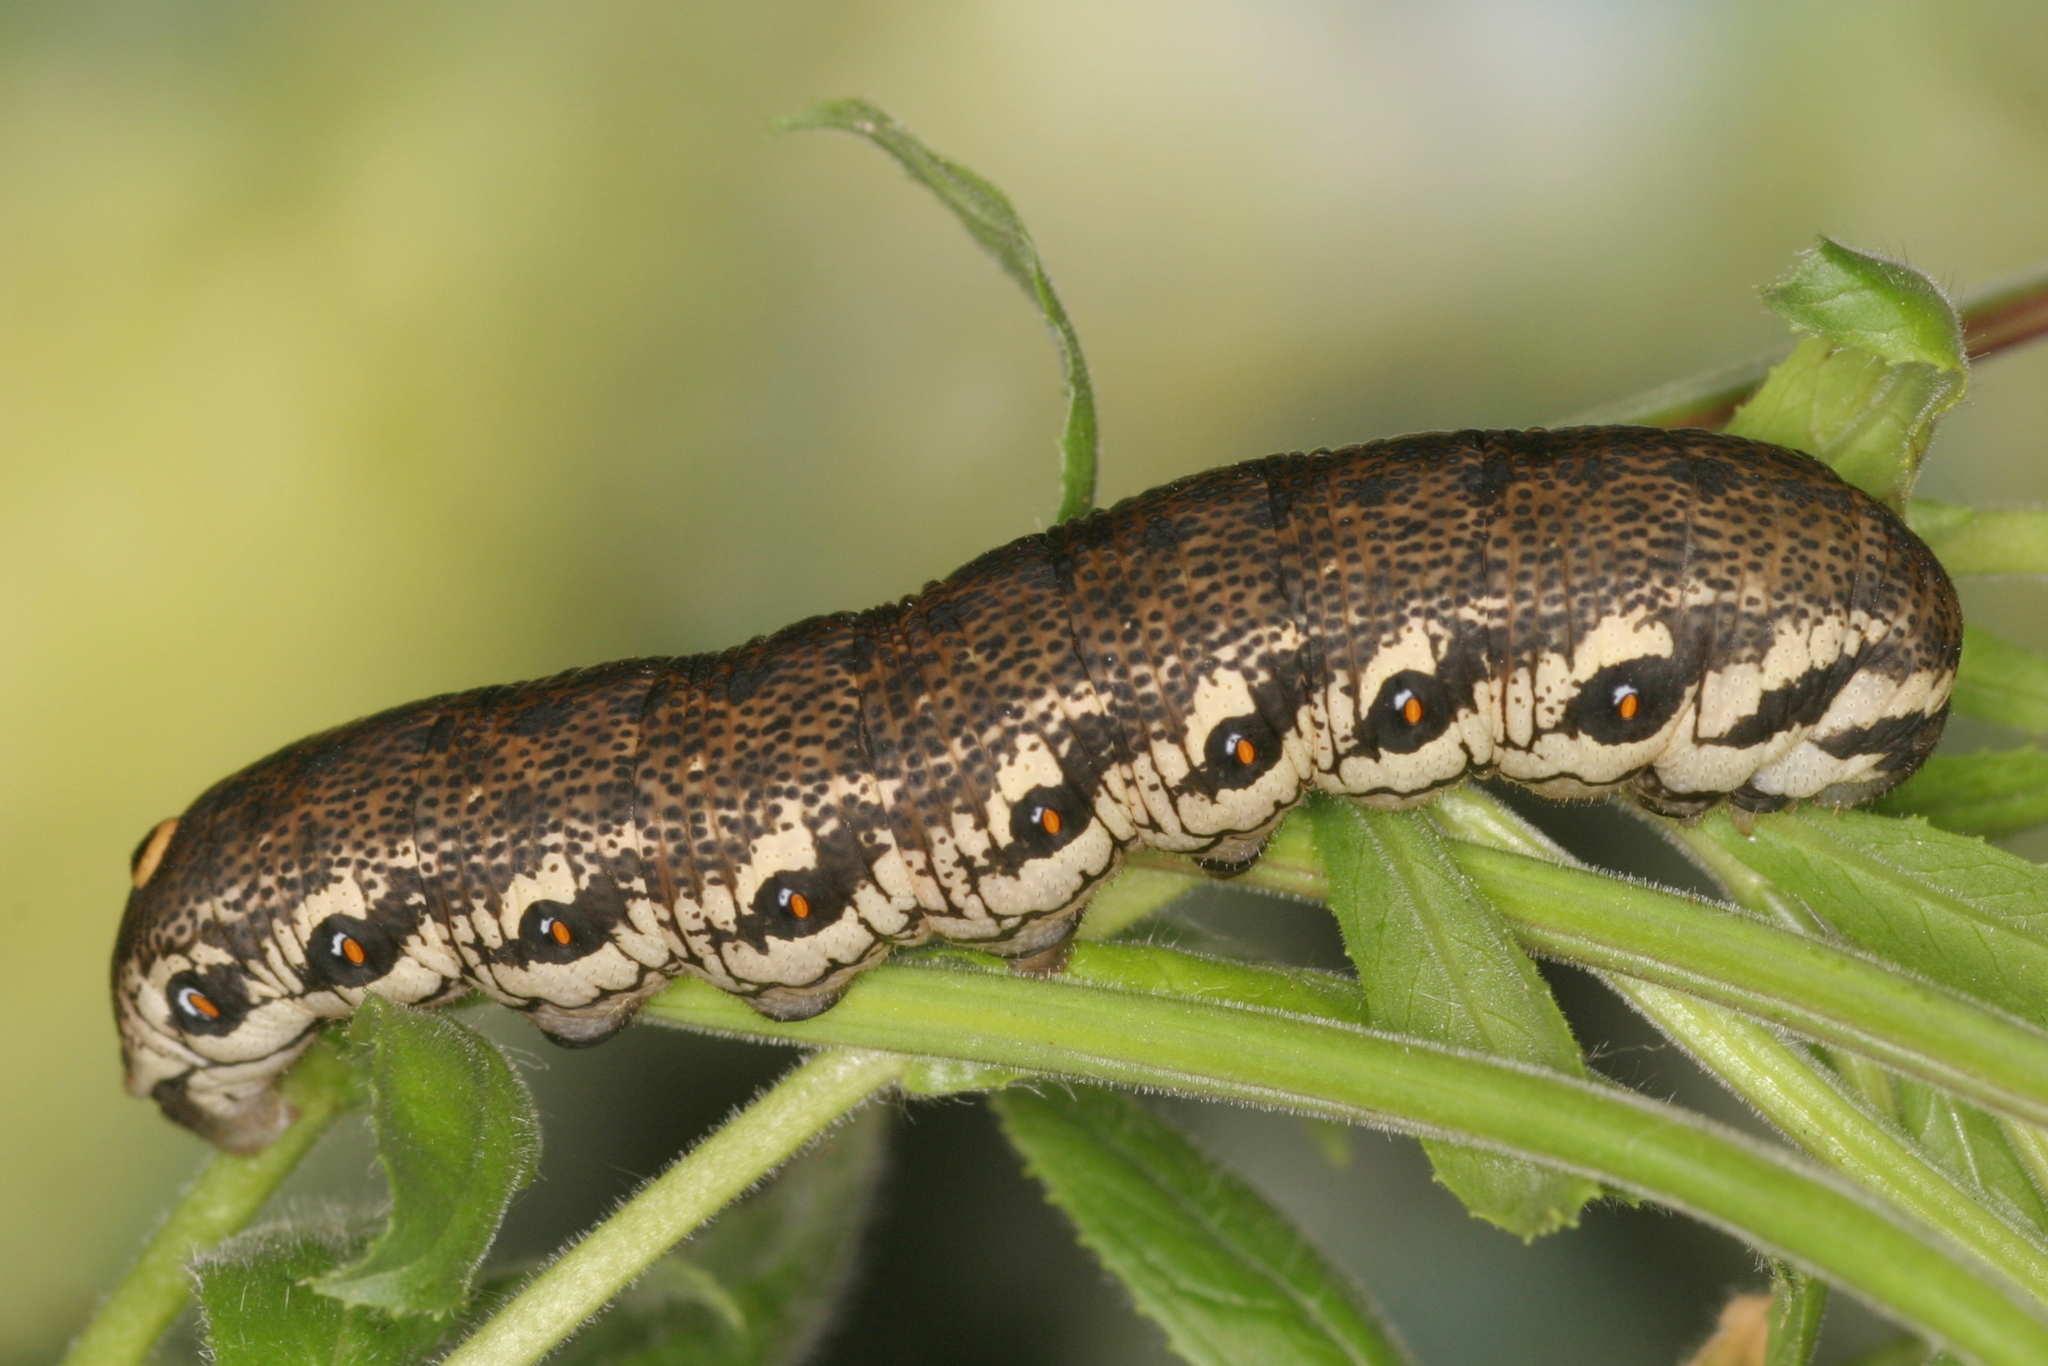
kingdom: Animalia
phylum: Arthropoda
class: Insecta
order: Lepidoptera
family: Sphingidae
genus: Proserpinus
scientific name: Proserpinus proserpina
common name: Willowherb hawkmoth
